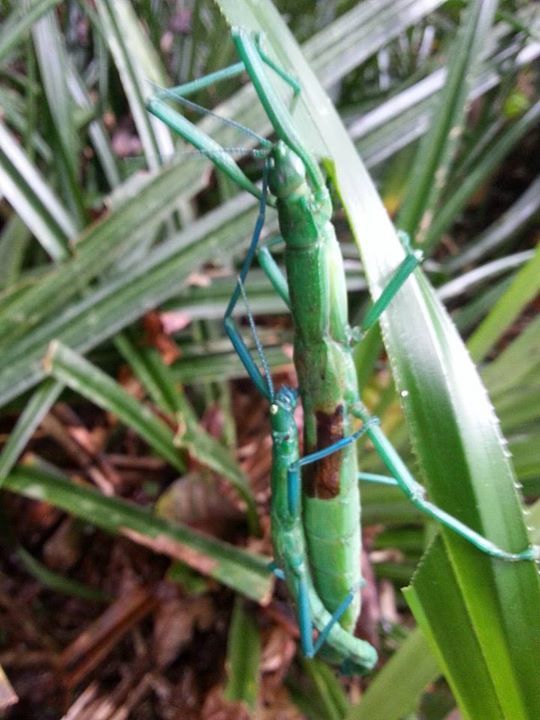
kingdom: Animalia
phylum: Arthropoda
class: Insecta
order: Phasmida
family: Phasmatidae
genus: Megacrania
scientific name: Megacrania batesii
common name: Peppermint stick-insect
